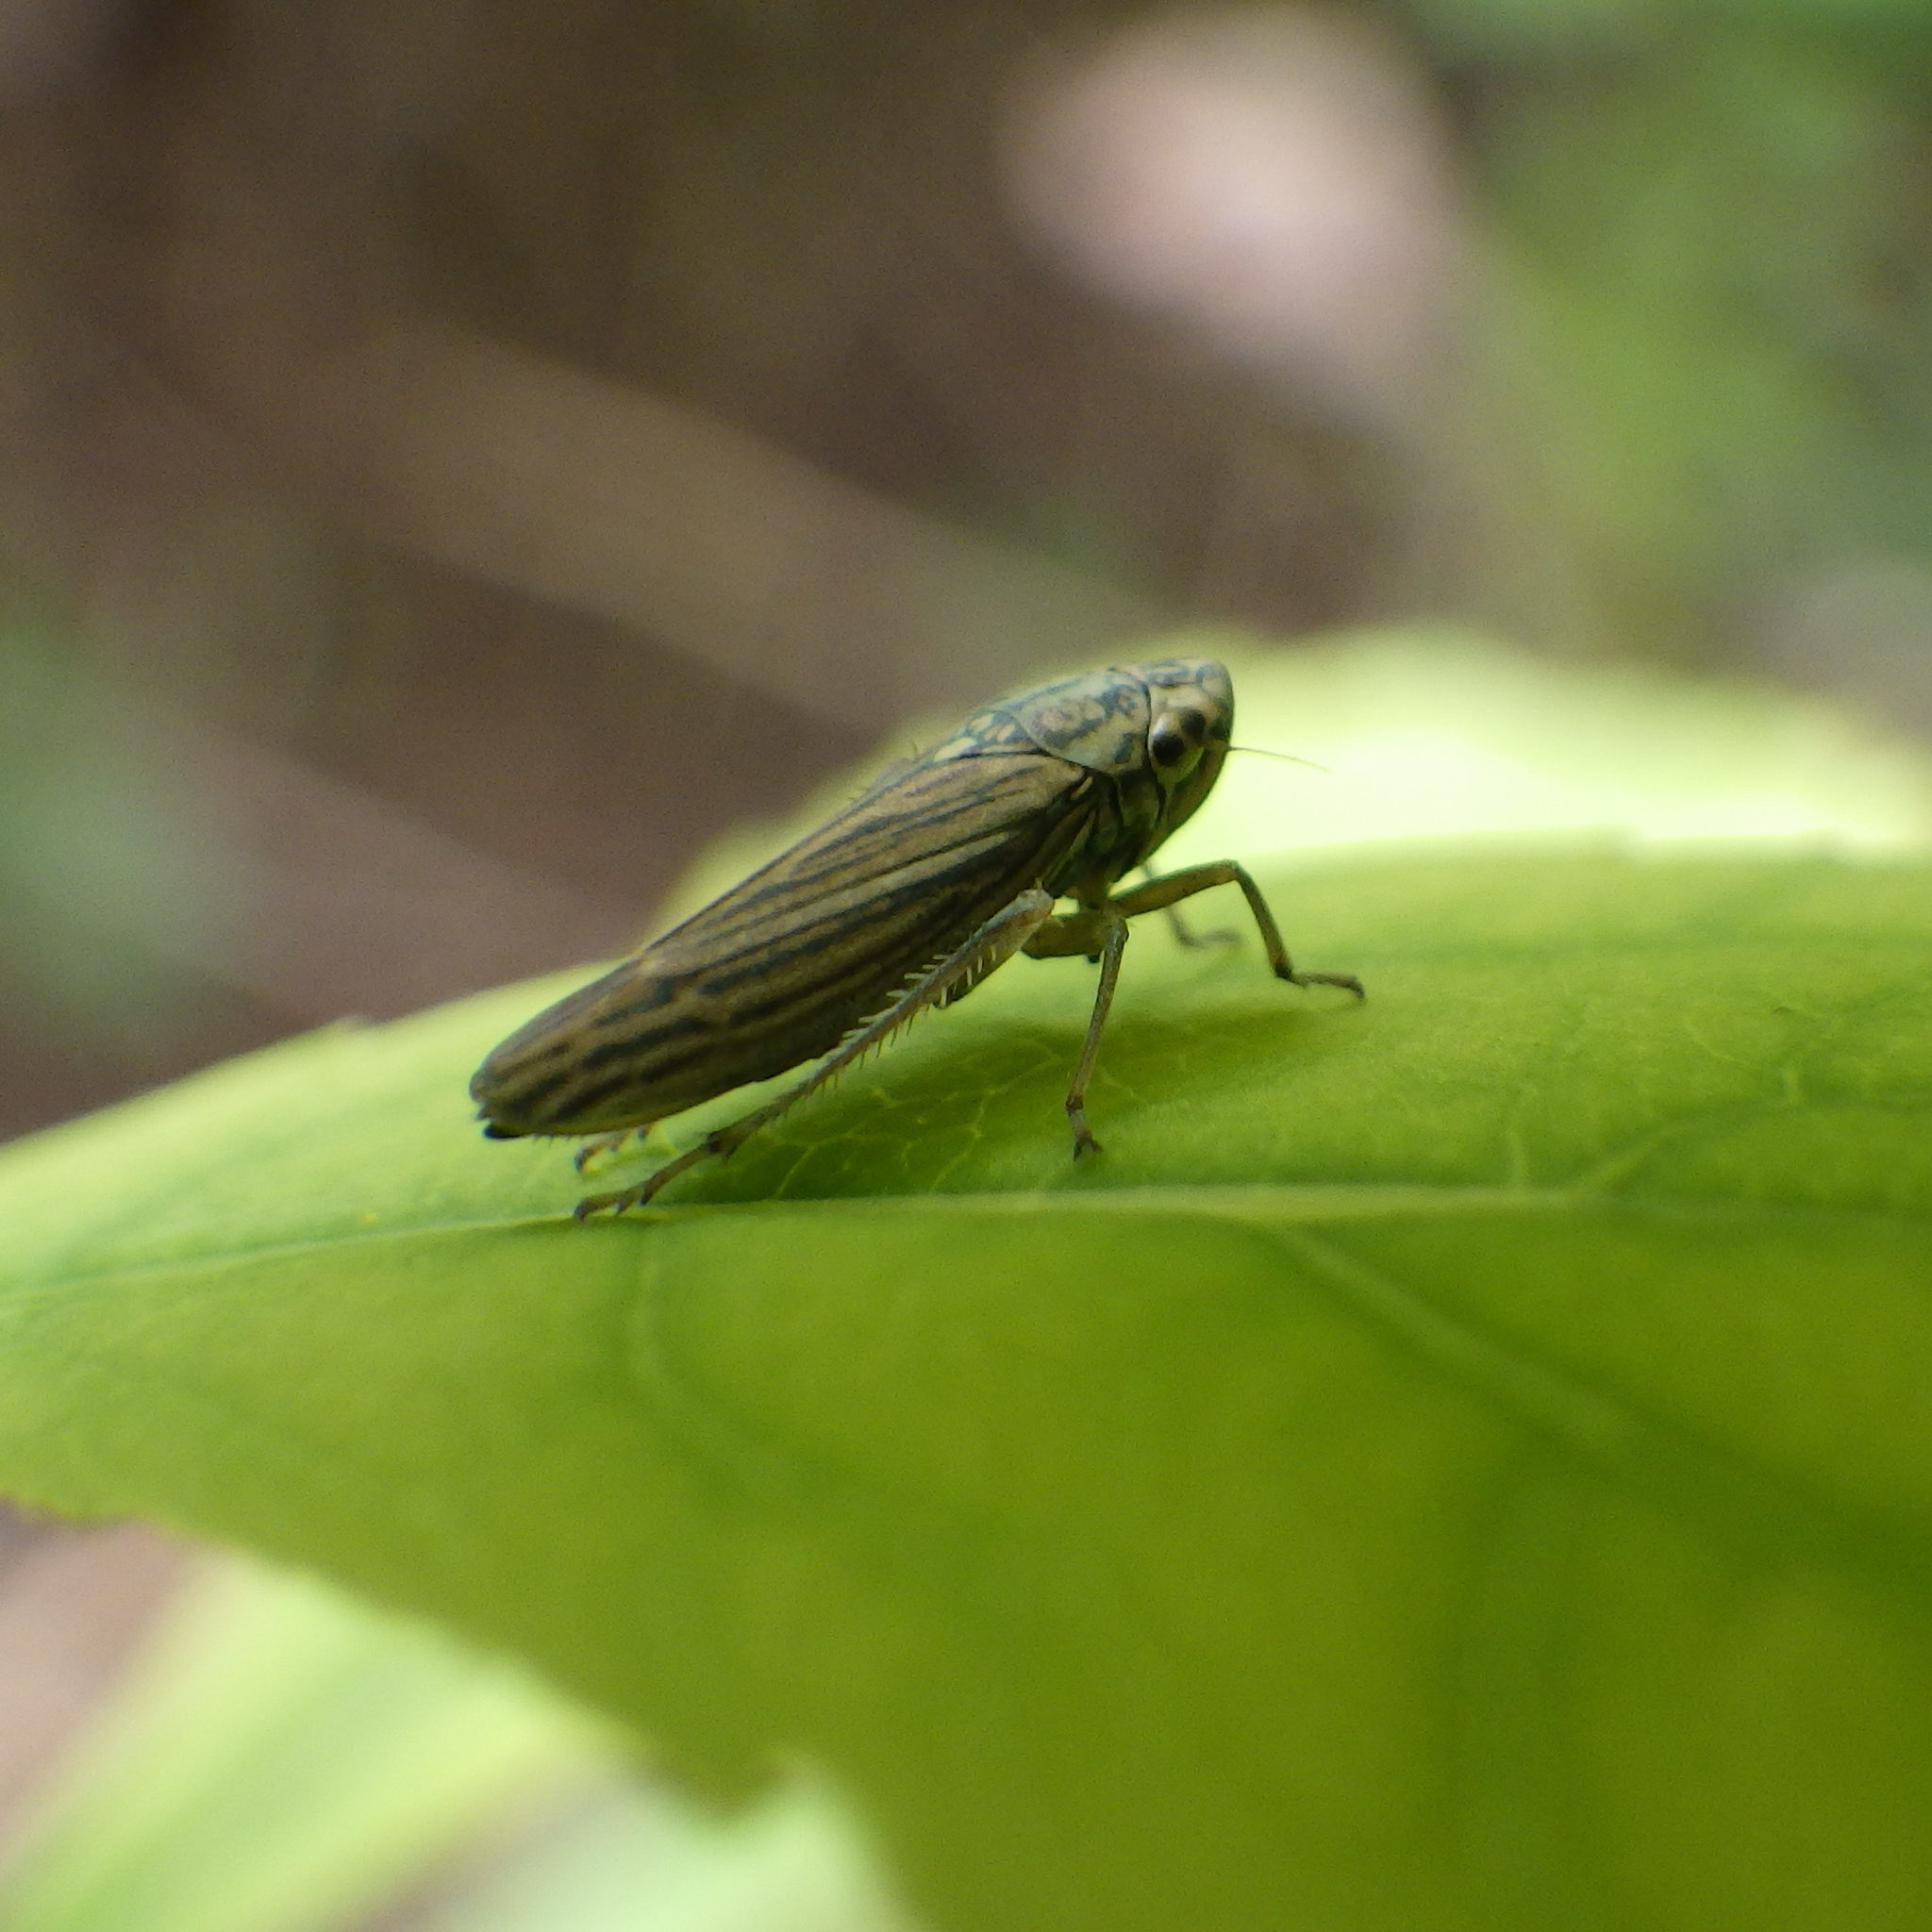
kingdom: Animalia
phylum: Arthropoda
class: Insecta
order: Hemiptera
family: Cicadellidae
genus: Neokolla
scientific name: Neokolla hieroglyphica
